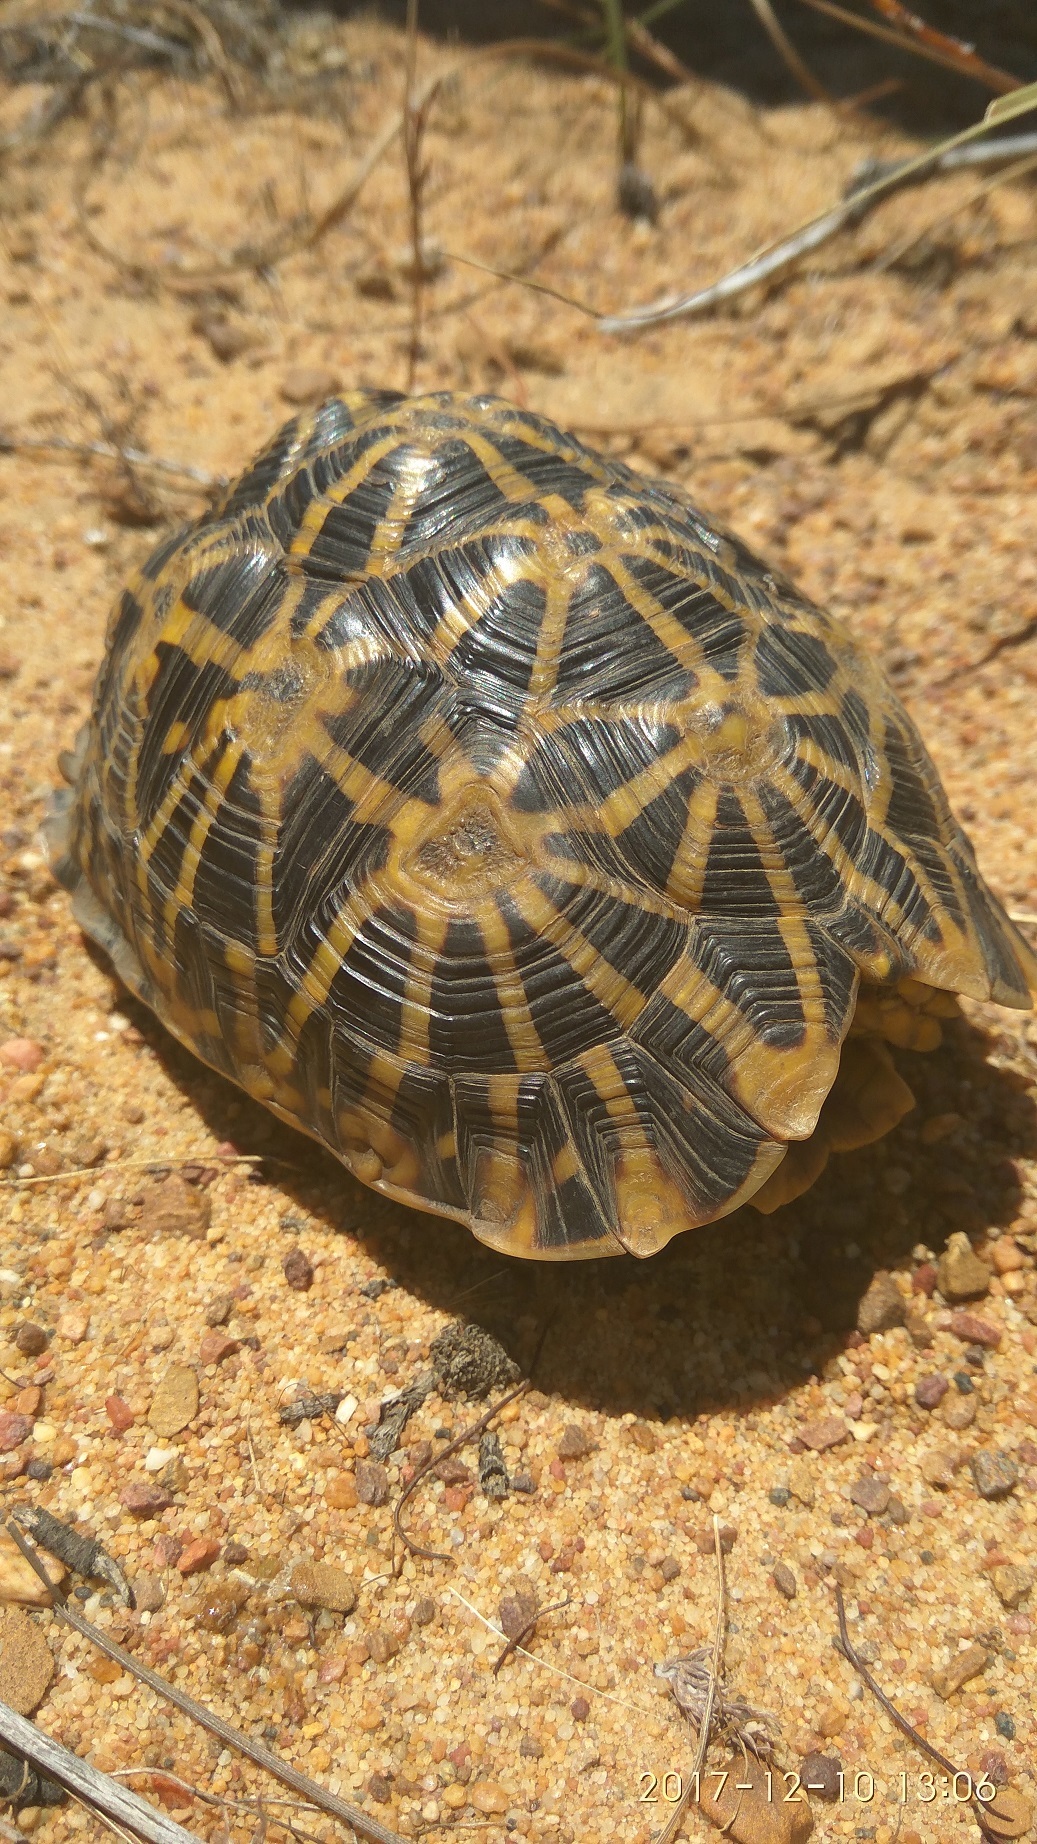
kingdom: Animalia
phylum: Chordata
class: Testudines
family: Testudinidae
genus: Psammobates
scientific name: Psammobates geometricus
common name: Geometric tortoise
